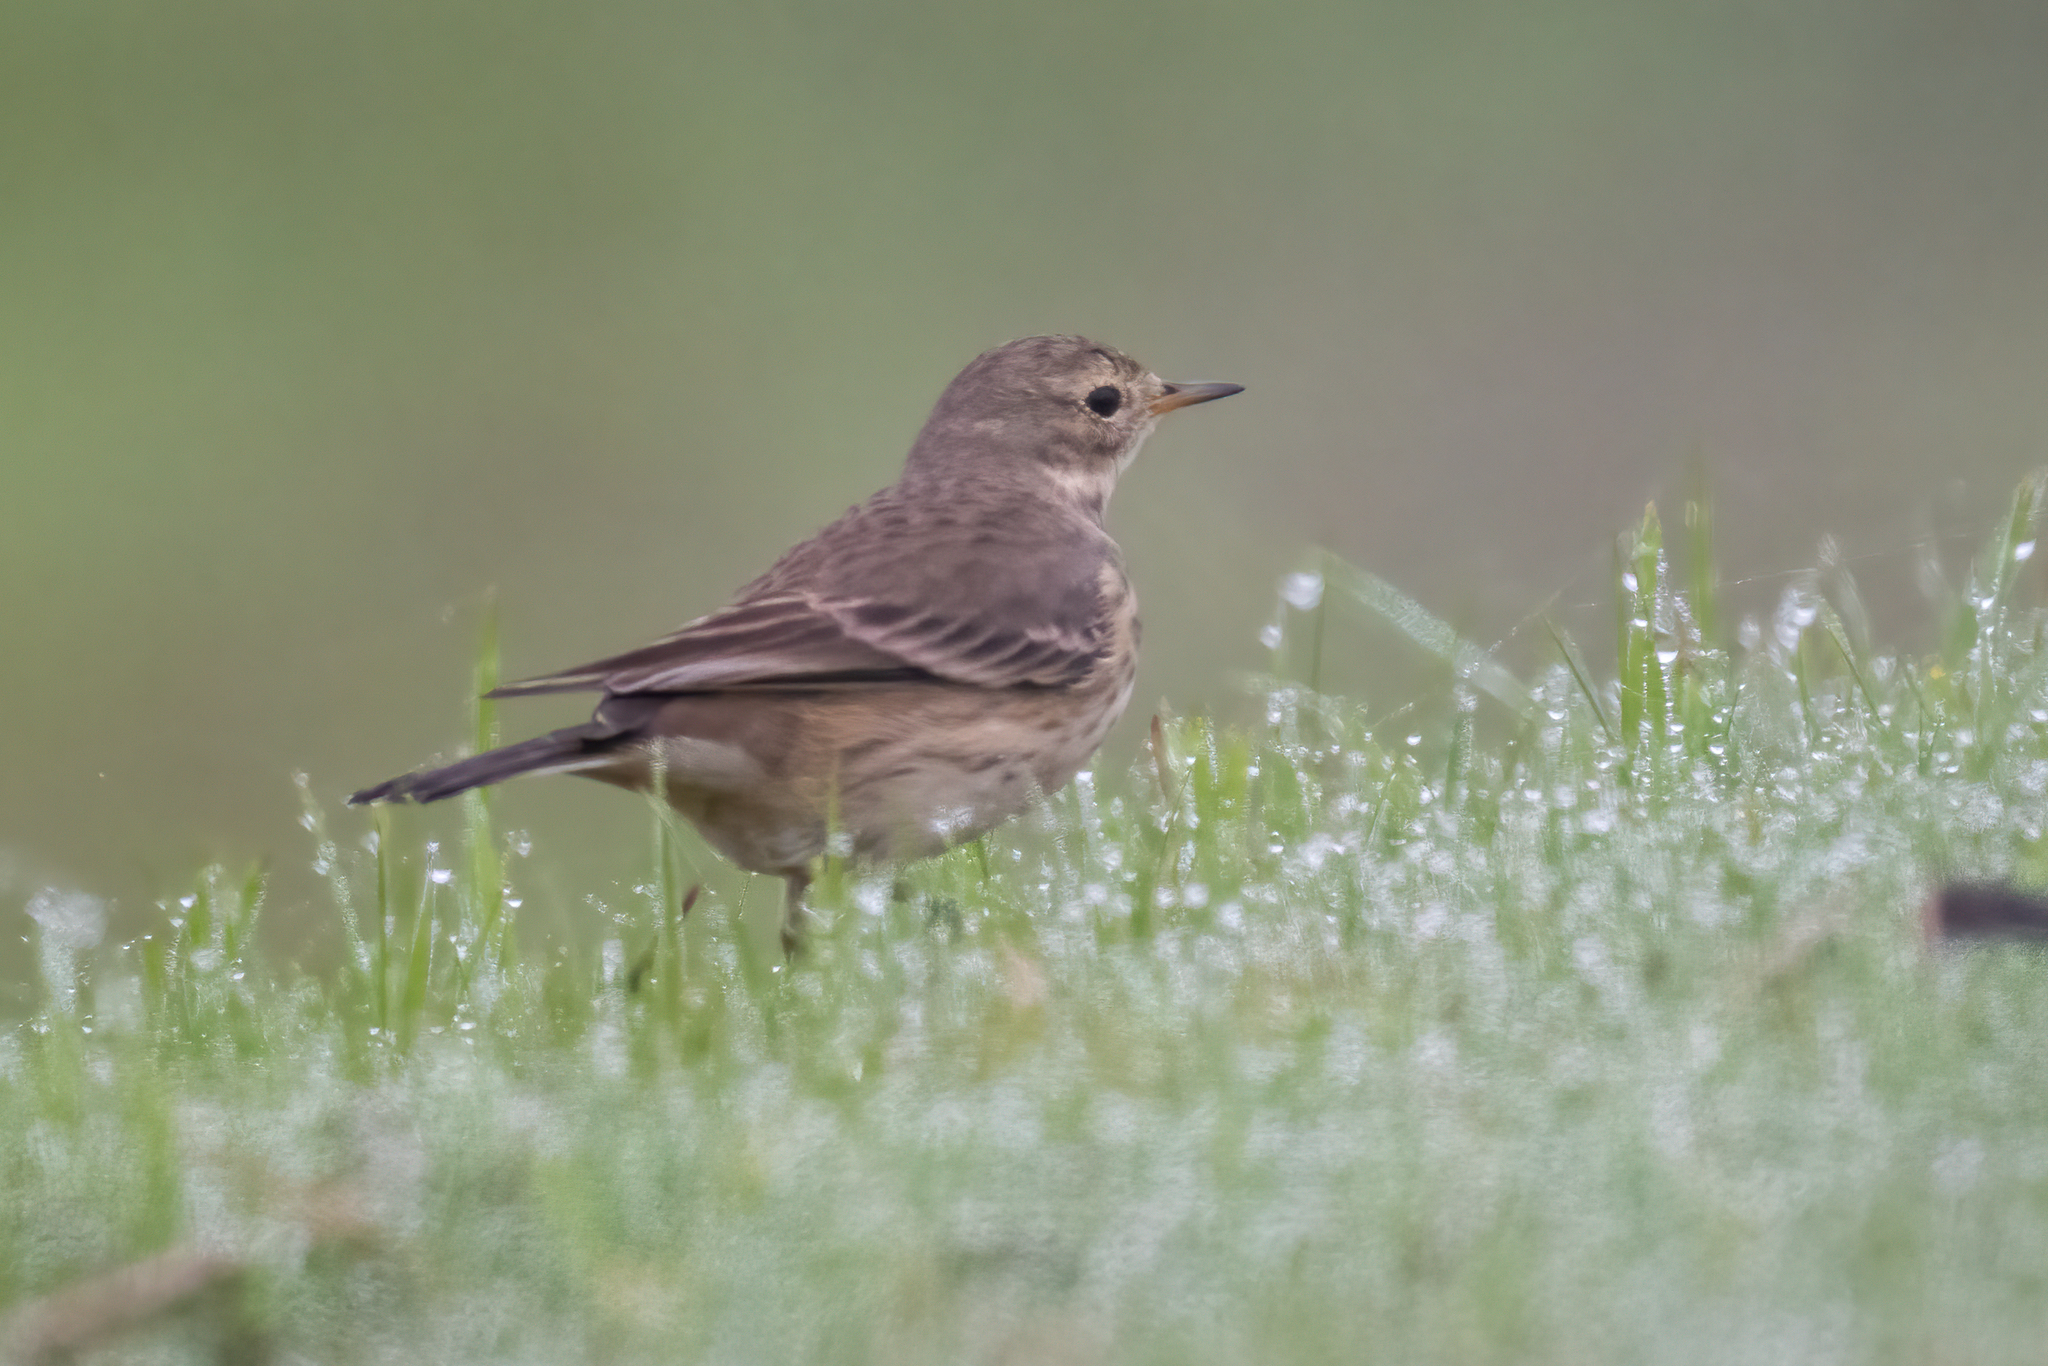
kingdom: Animalia
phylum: Chordata
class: Aves
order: Passeriformes
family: Motacillidae
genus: Anthus
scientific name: Anthus rubescens
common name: Buff-bellied pipit
